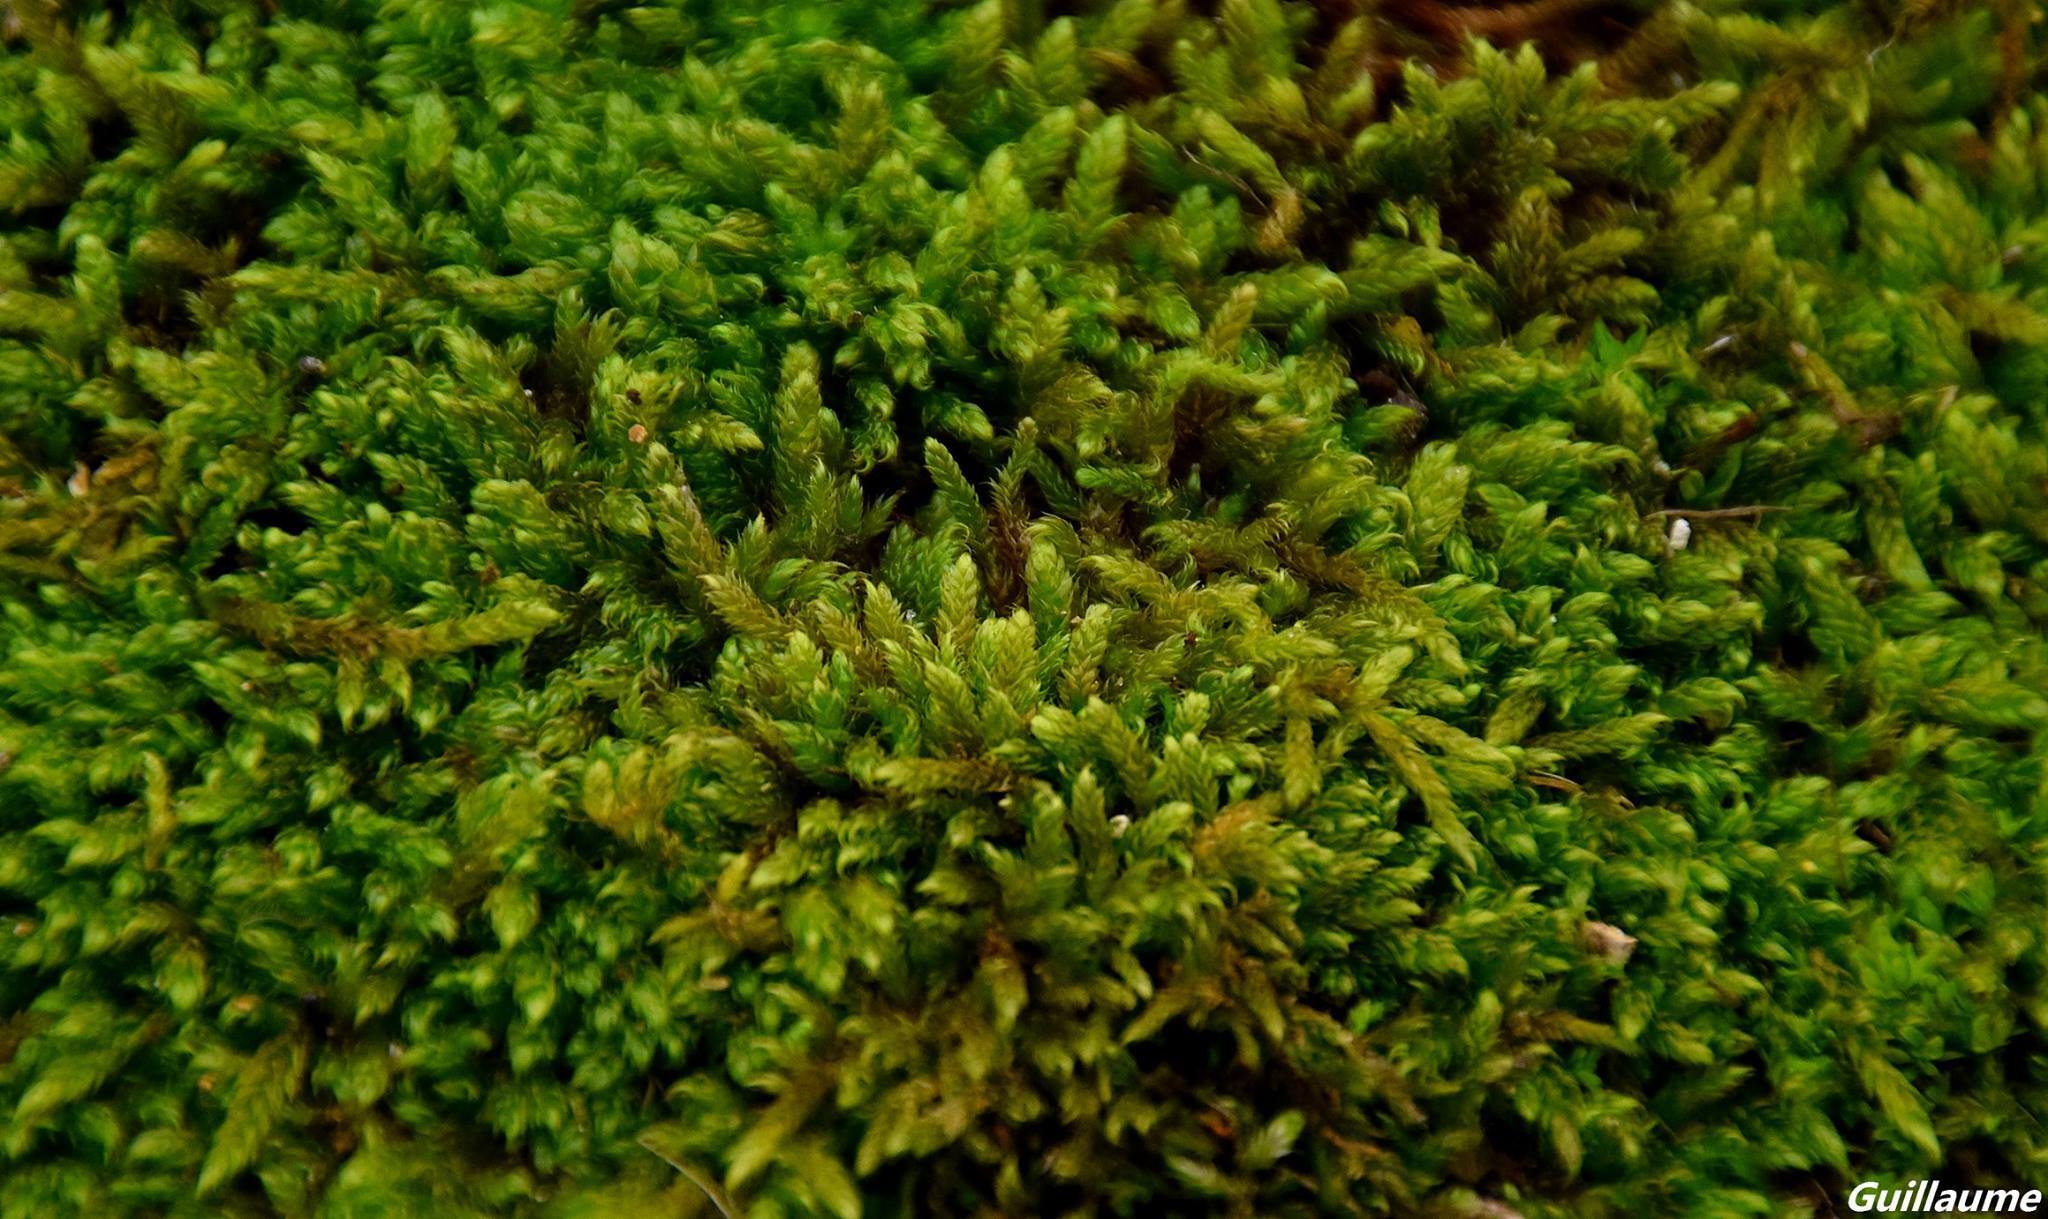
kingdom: Plantae
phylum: Bryophyta
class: Bryopsida
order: Hypnales
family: Hypnaceae
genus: Hypnum
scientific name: Hypnum cupressiforme
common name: Cypress-leaved plait-moss
